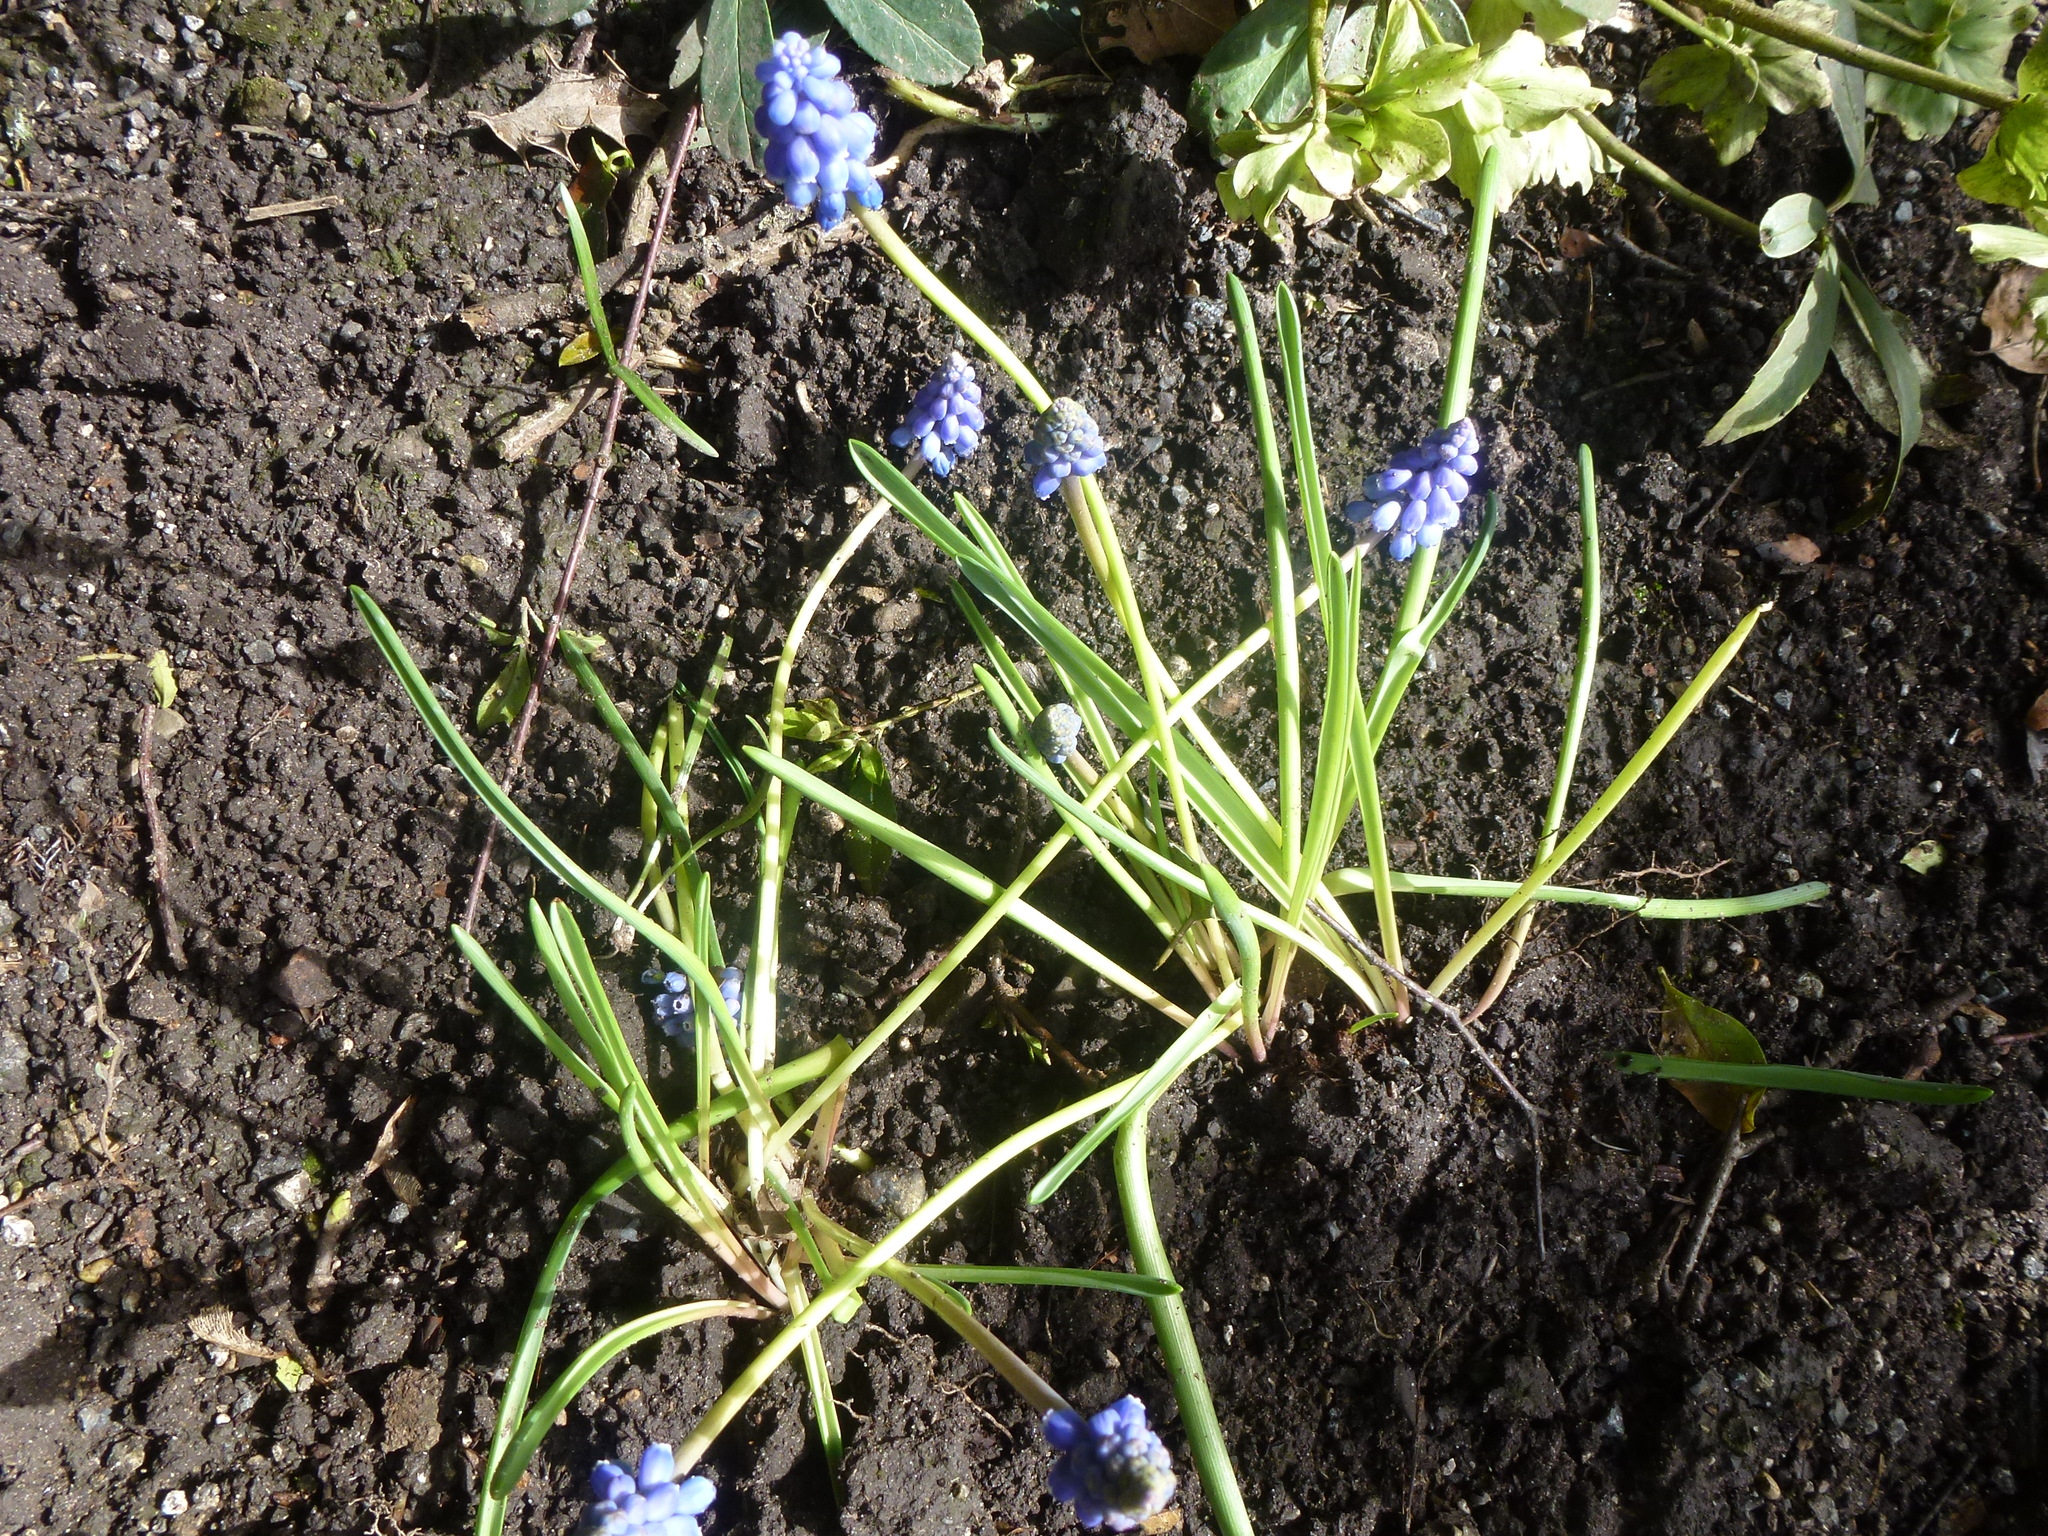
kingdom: Plantae
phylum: Tracheophyta
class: Liliopsida
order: Asparagales
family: Asparagaceae
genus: Muscari
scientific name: Muscari armeniacum
